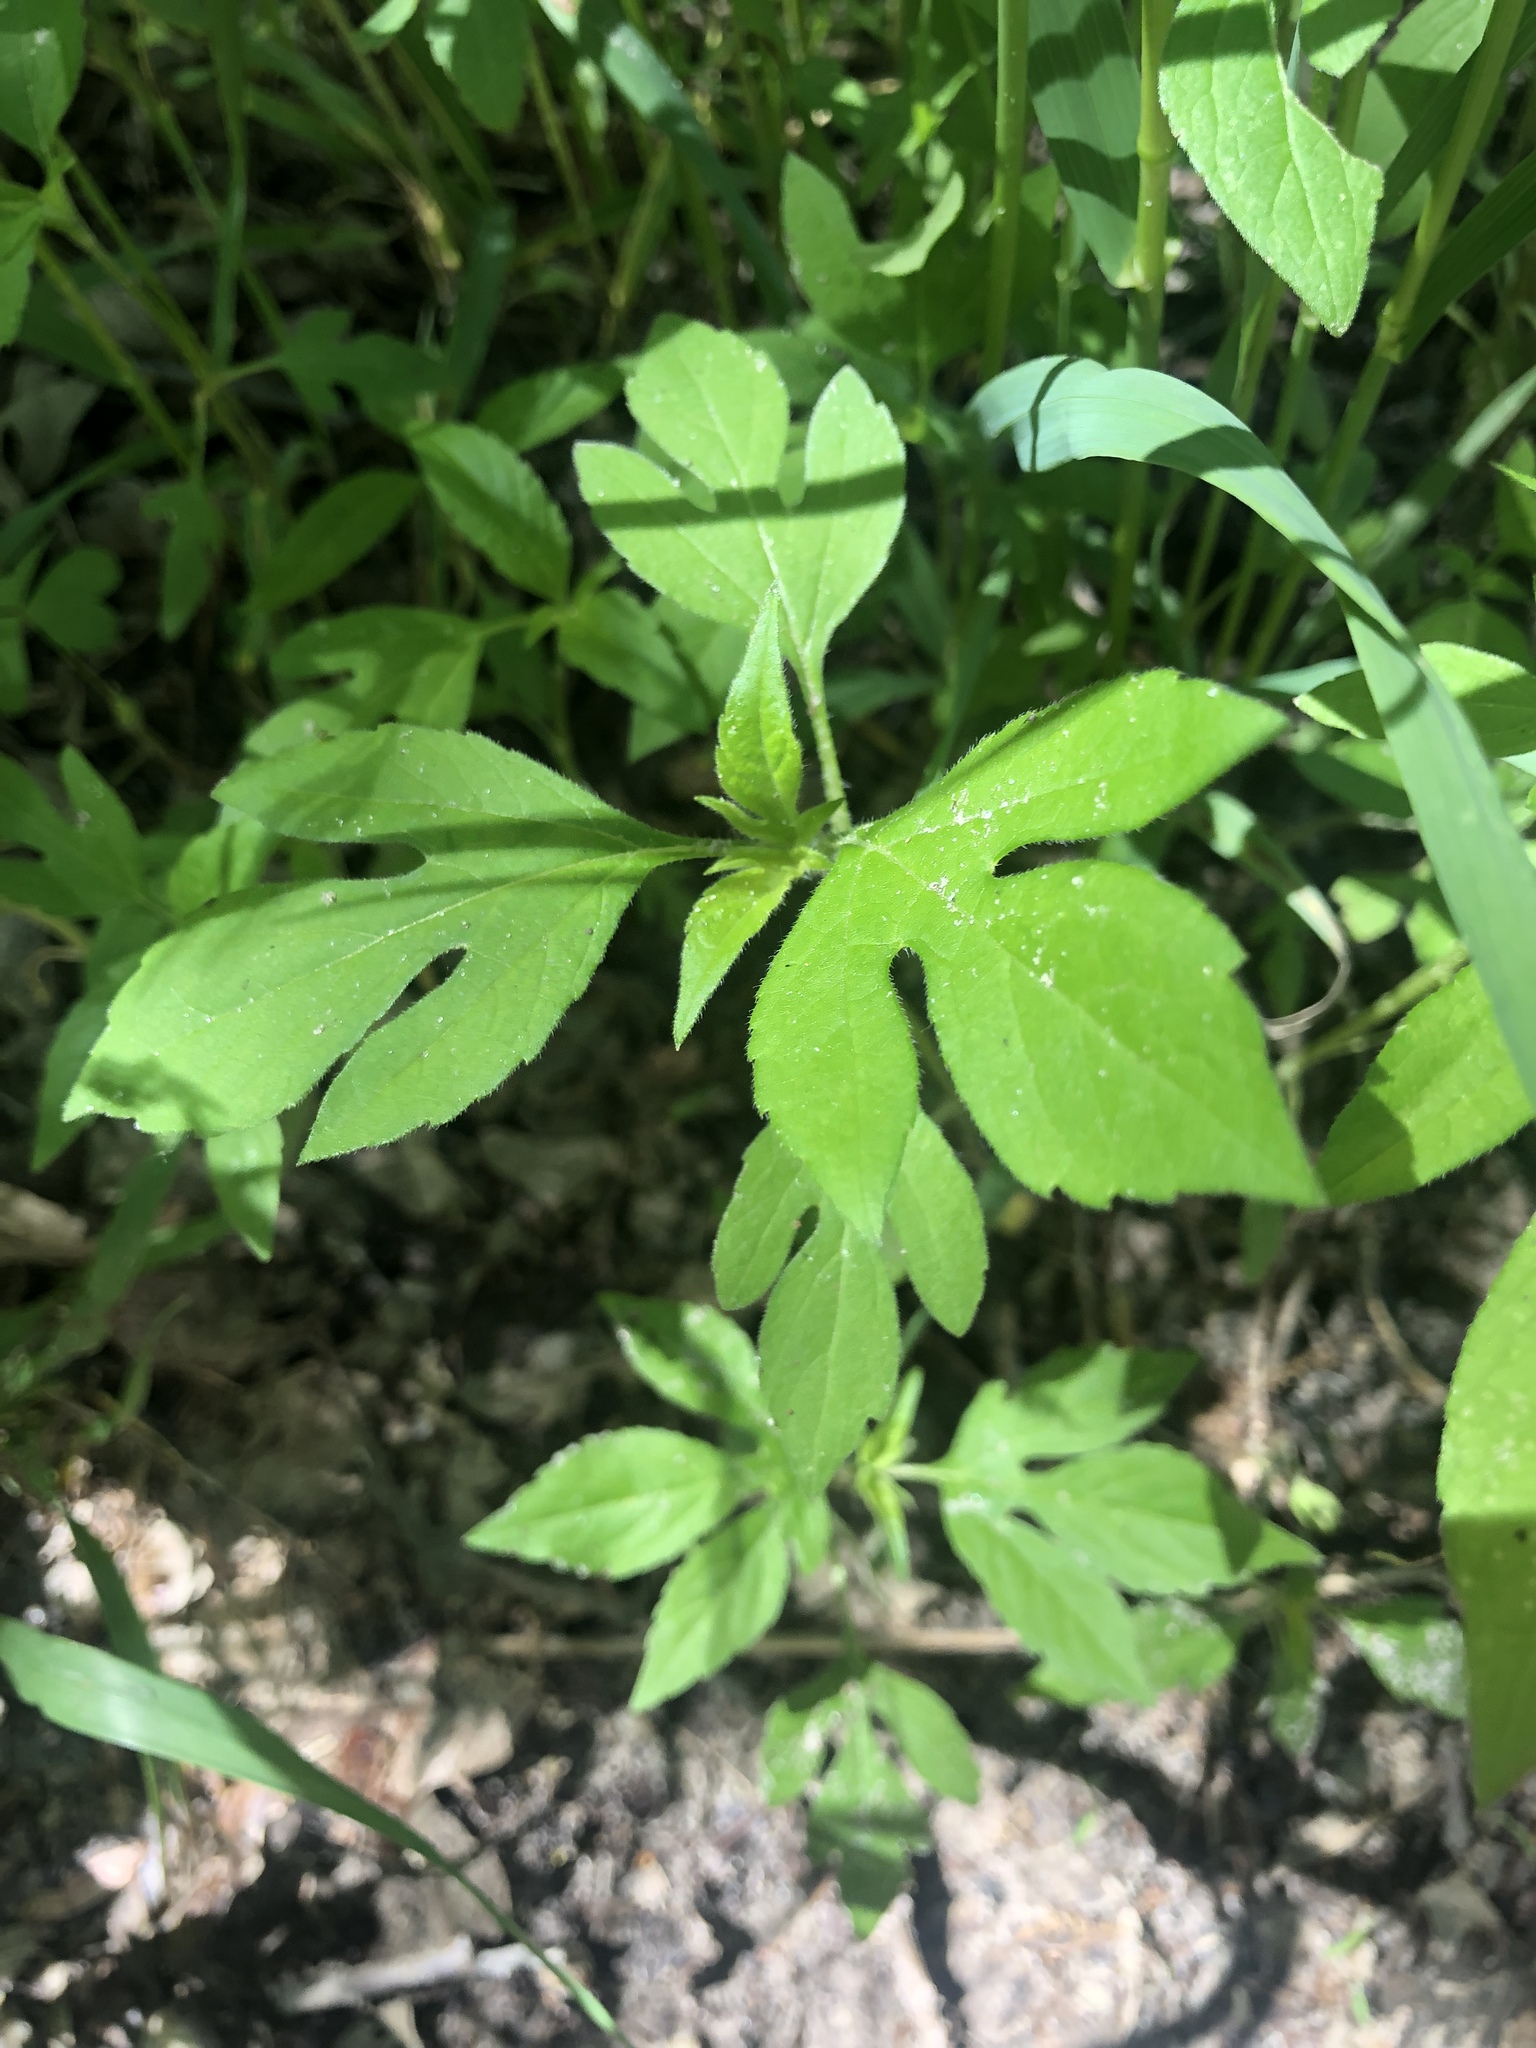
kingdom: Plantae
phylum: Tracheophyta
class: Magnoliopsida
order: Asterales
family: Asteraceae
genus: Ambrosia
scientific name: Ambrosia trifida
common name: Giant ragweed
